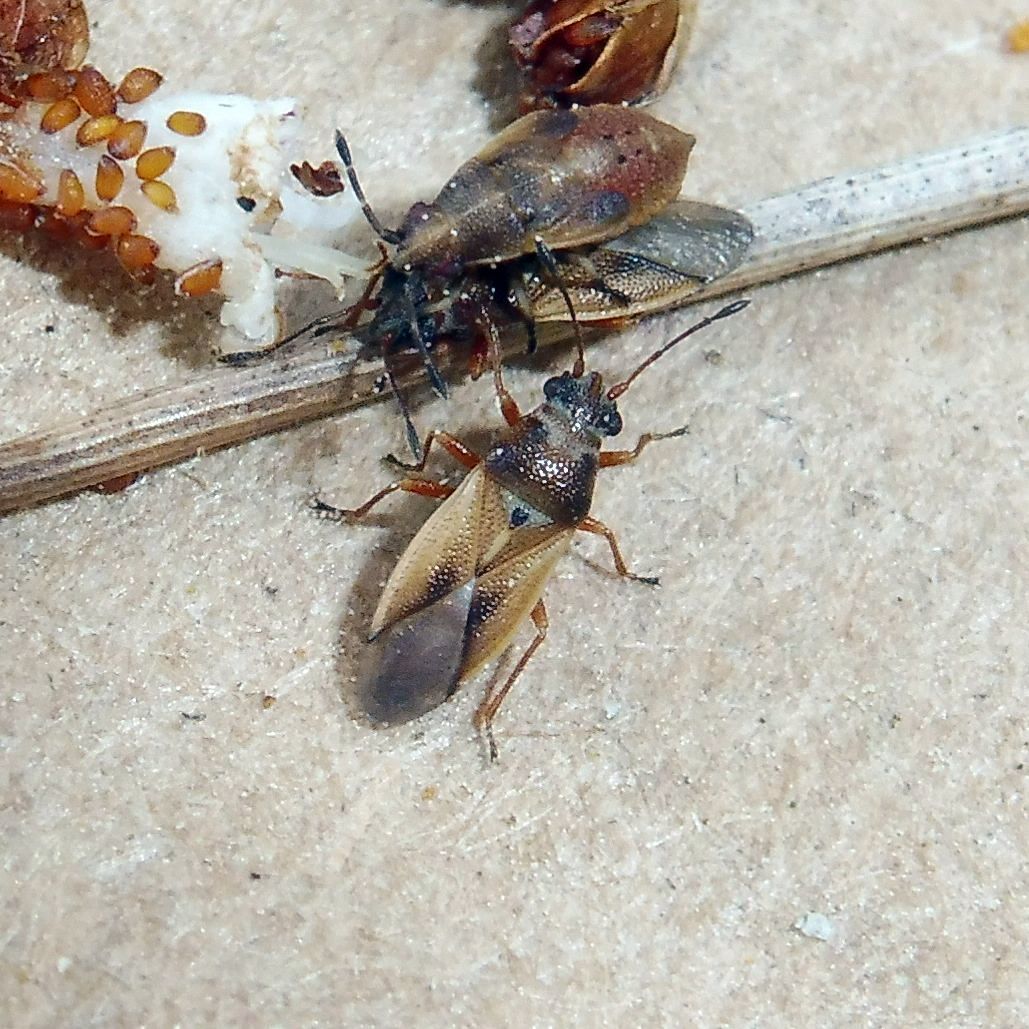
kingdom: Animalia
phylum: Arthropoda
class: Insecta
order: Hemiptera
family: Cymidae
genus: Cymus
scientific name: Cymus melanocephalus
